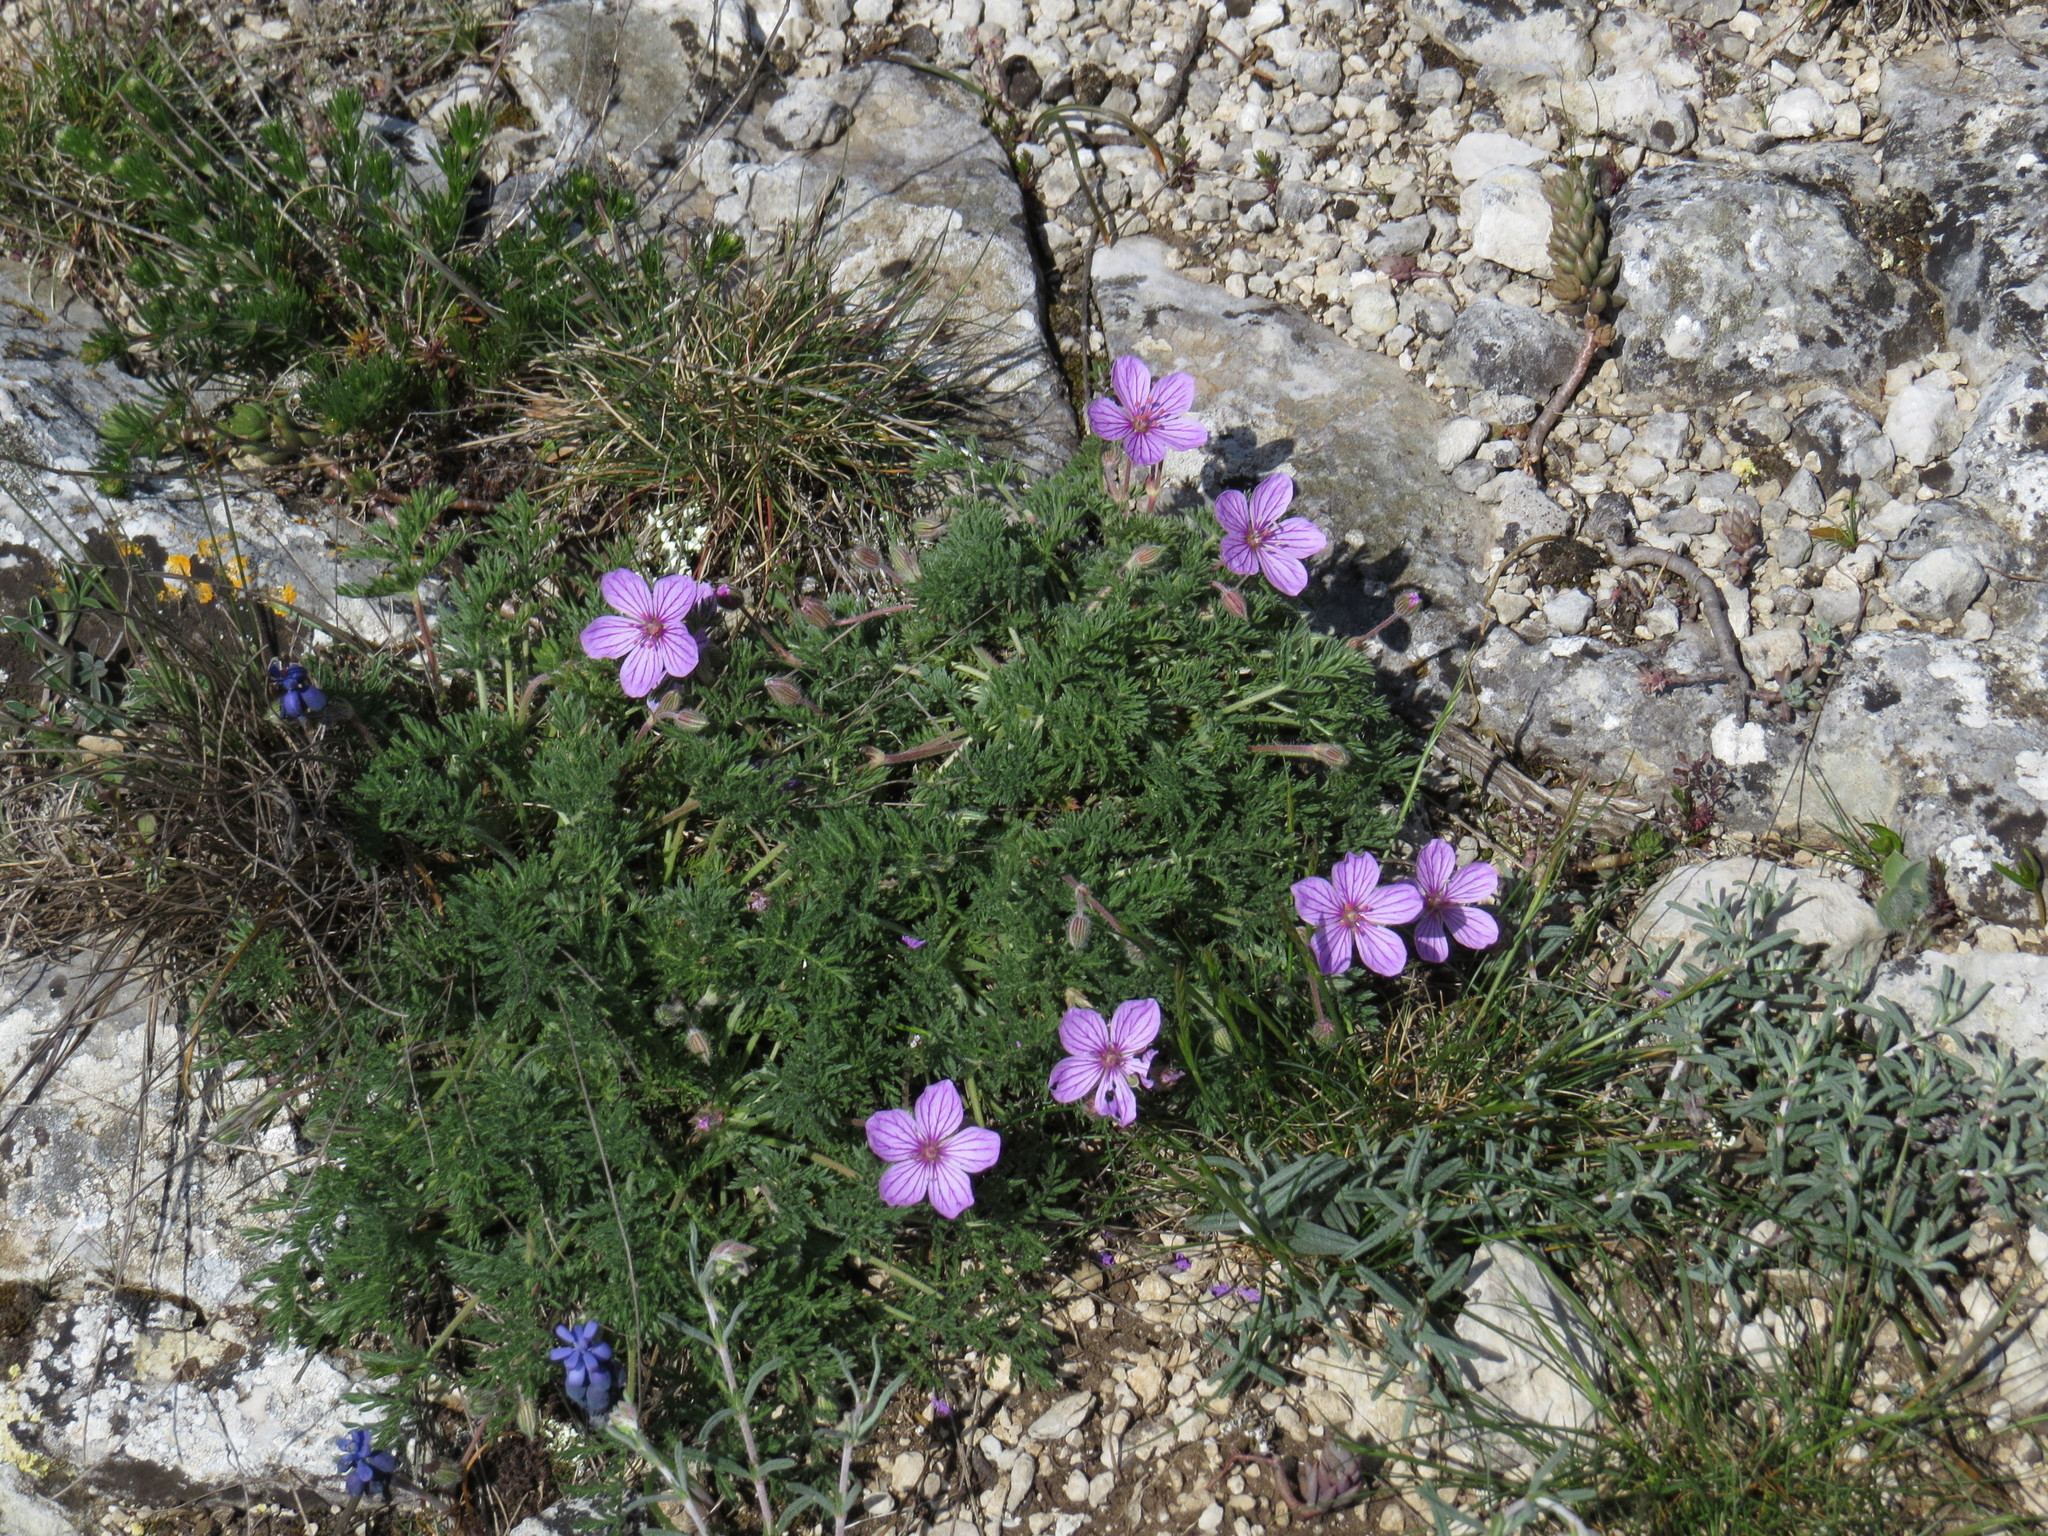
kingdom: Plantae
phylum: Tracheophyta
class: Magnoliopsida
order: Geraniales
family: Geraniaceae
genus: Erodium
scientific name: Erodium foetidum
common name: Rock stork's-bill
